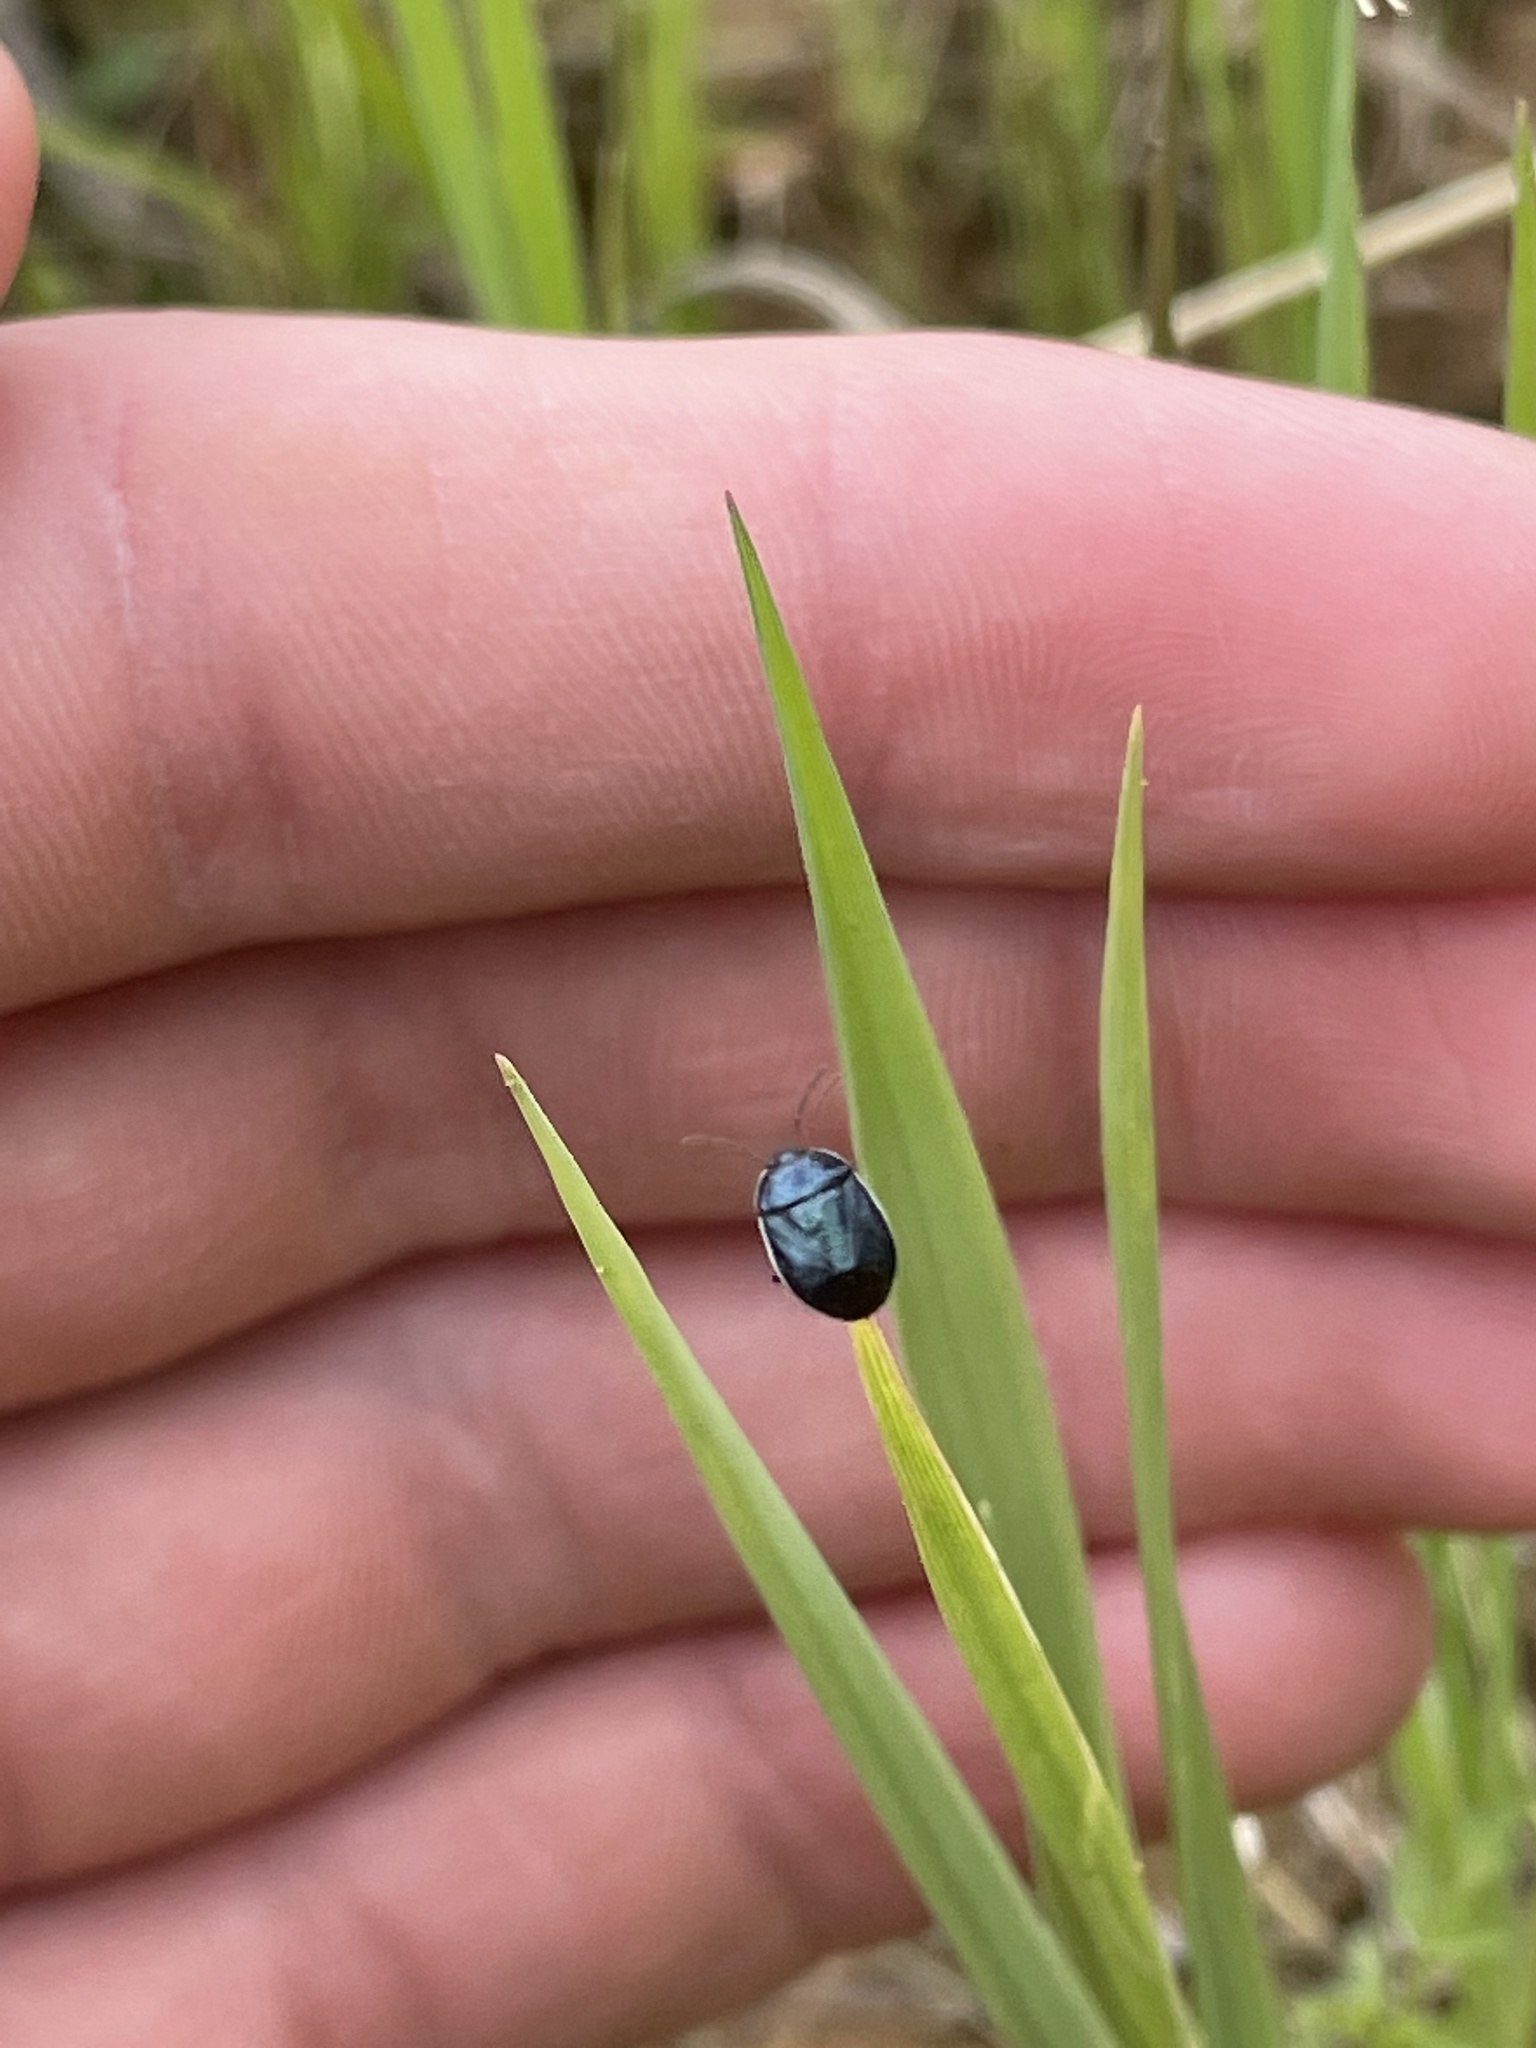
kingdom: Animalia
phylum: Arthropoda
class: Insecta
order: Hemiptera
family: Cydnidae
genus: Sehirus
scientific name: Sehirus cinctus
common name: White-margined burrower bug
